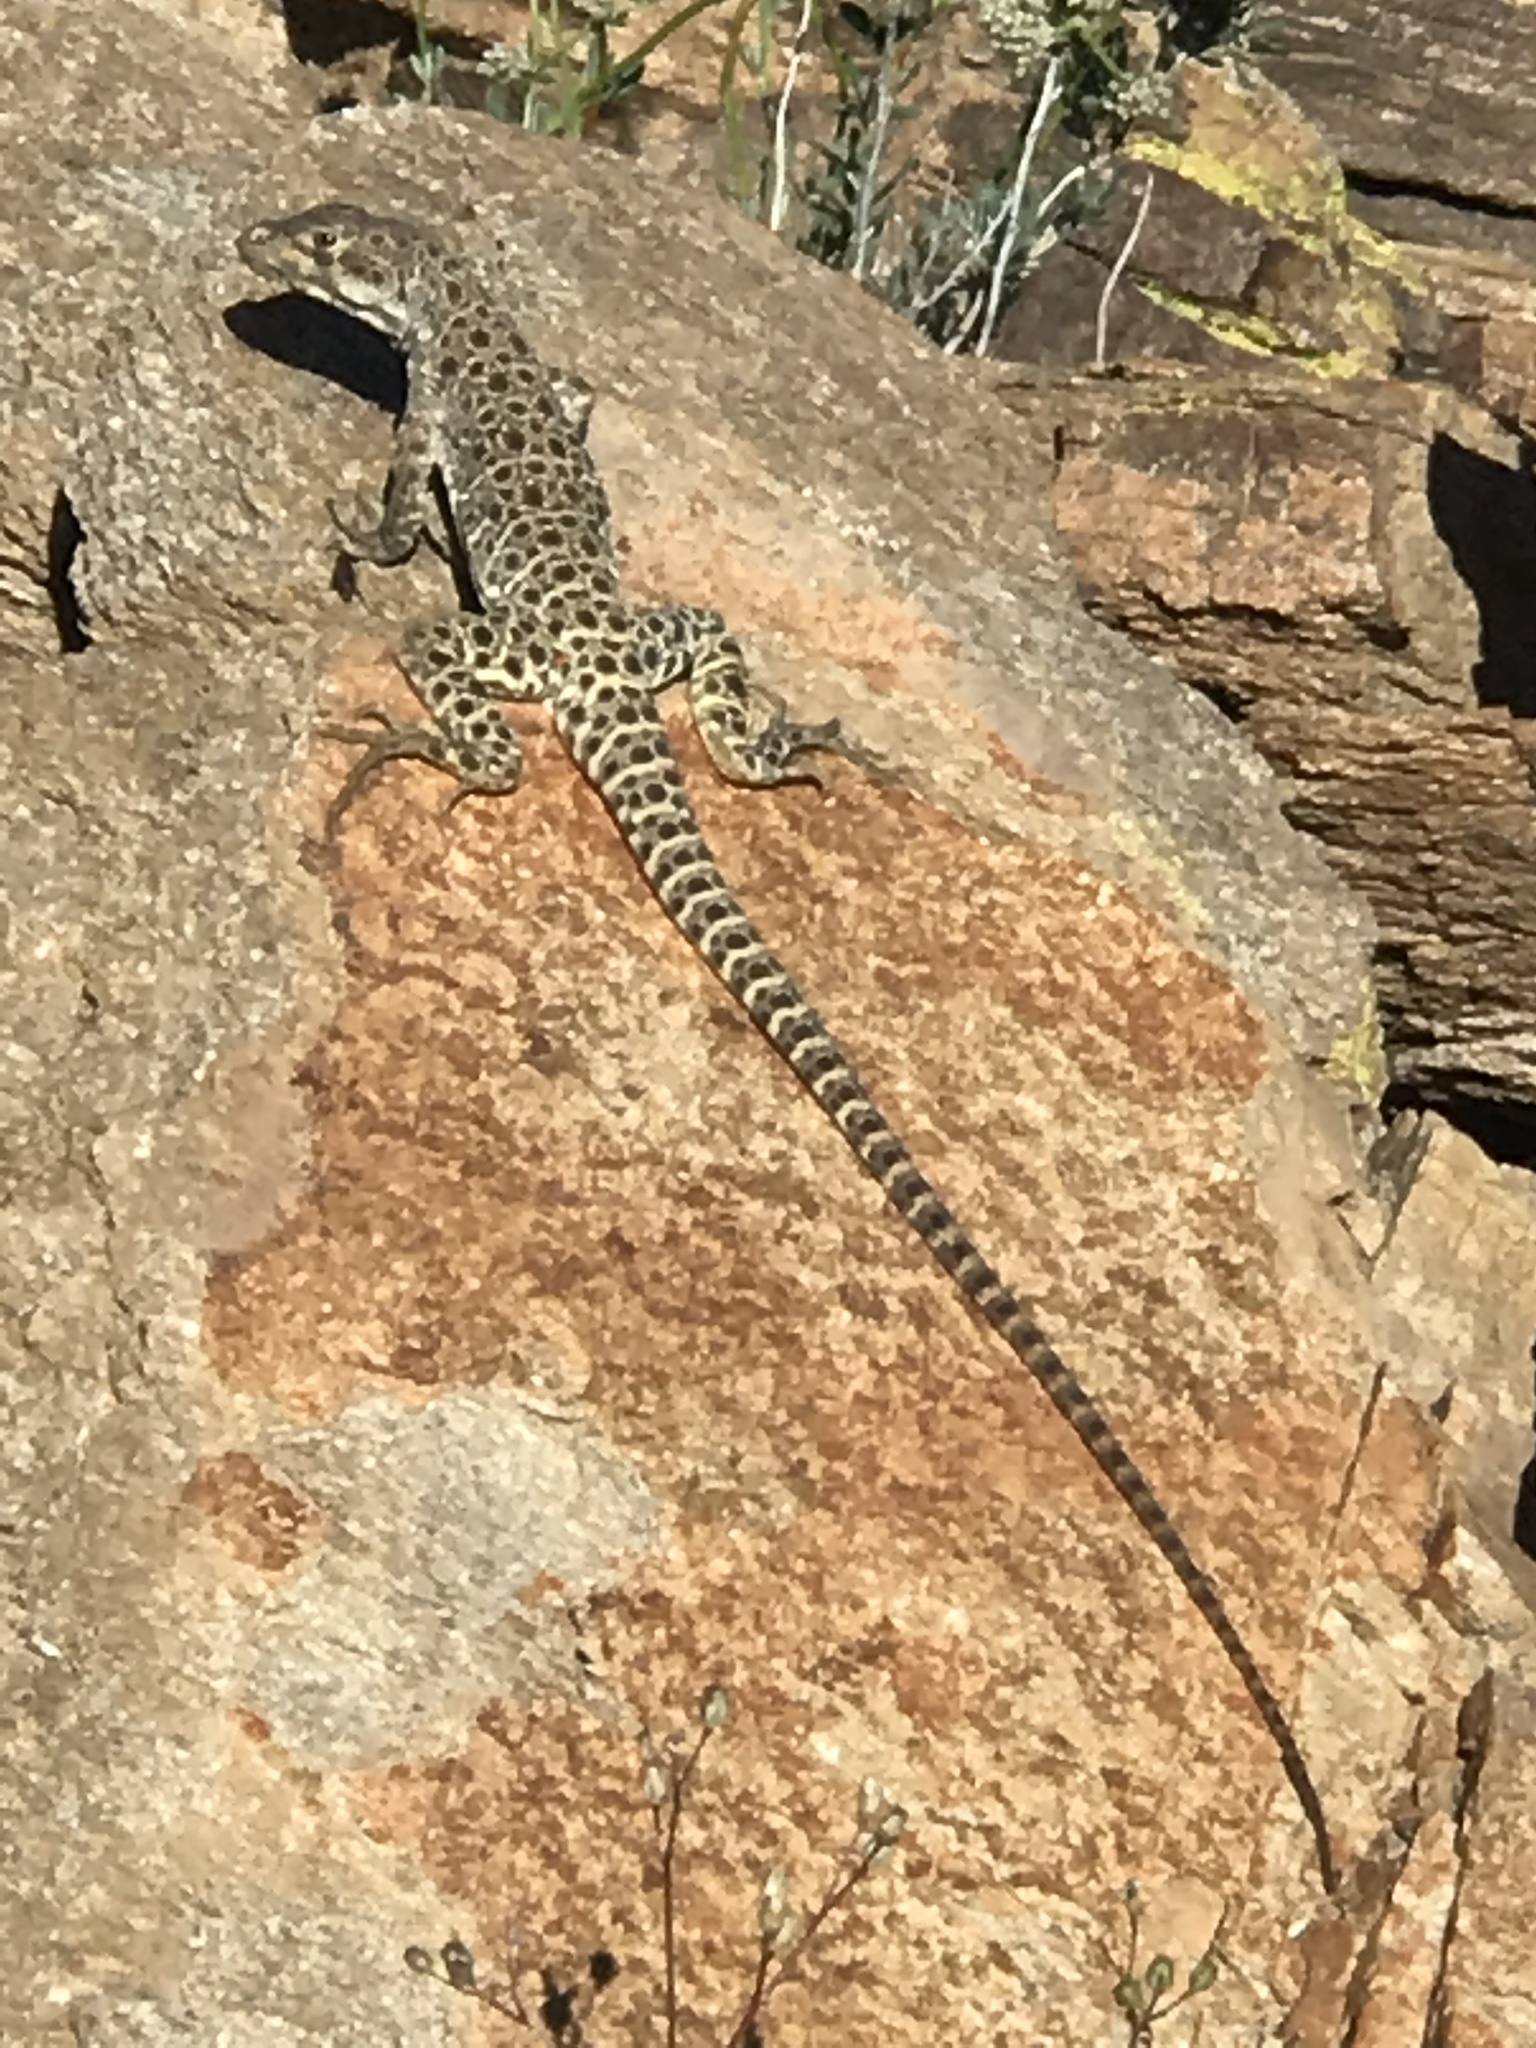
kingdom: Animalia
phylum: Chordata
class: Squamata
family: Crotaphytidae
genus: Gambelia
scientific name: Gambelia wislizenii
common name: Longnose leopard lizard
